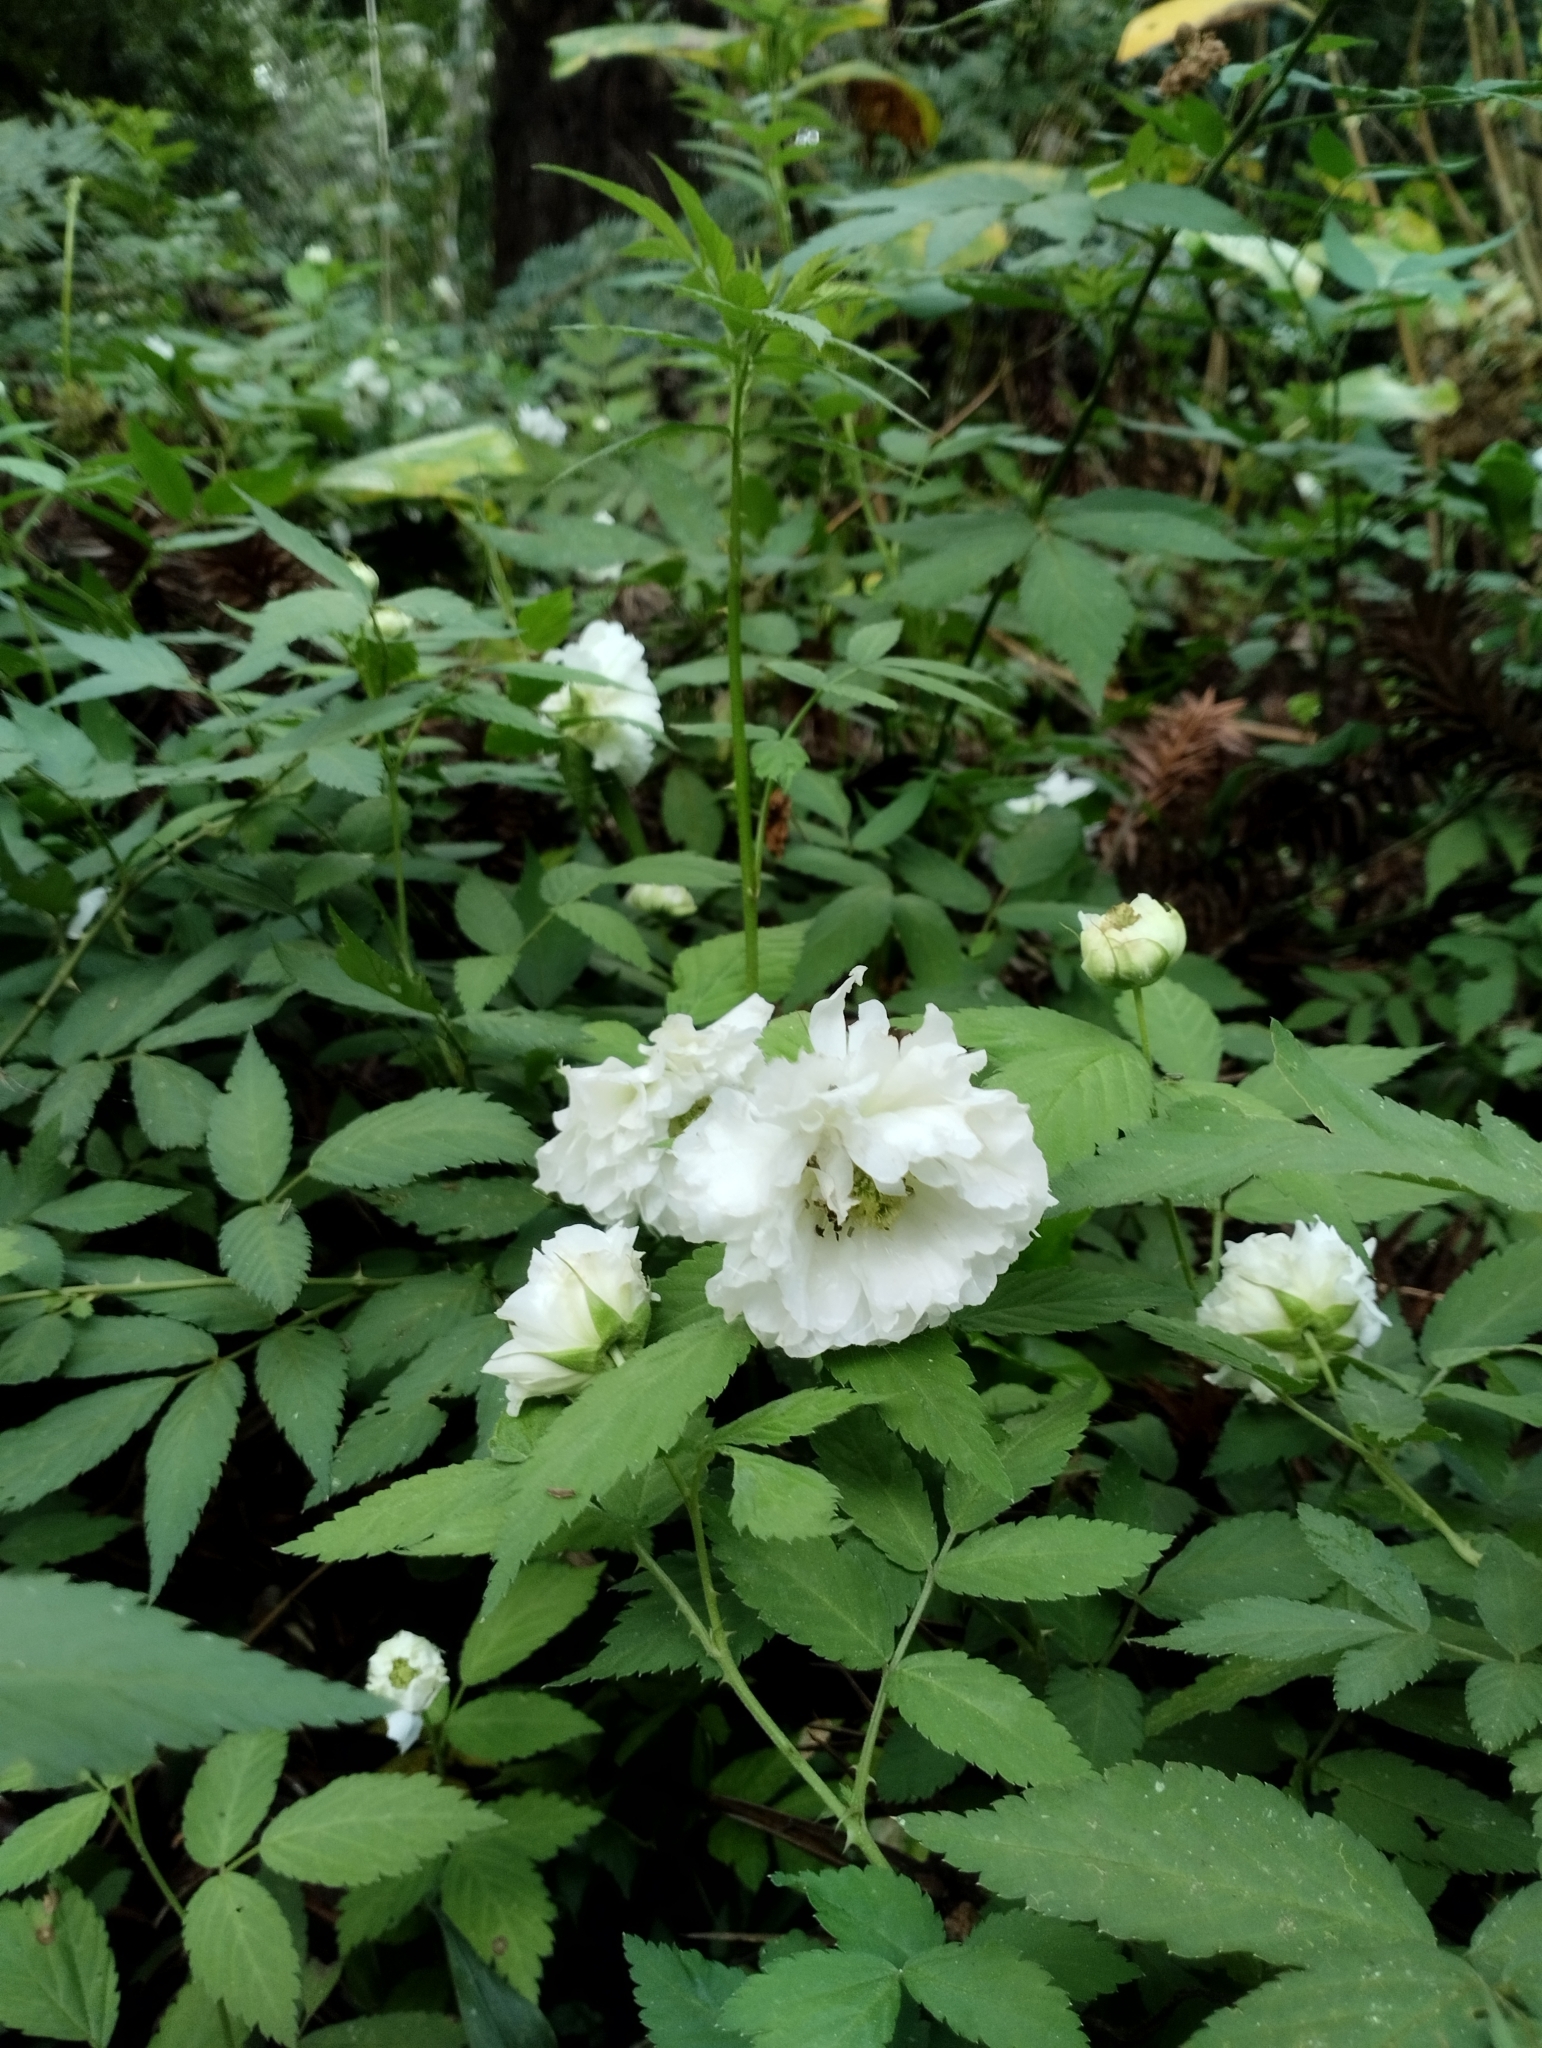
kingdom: Plantae
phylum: Tracheophyta
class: Magnoliopsida
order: Rosales
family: Rosaceae
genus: Rubus
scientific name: Rubus rosifolius
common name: Roseleaf raspberry
